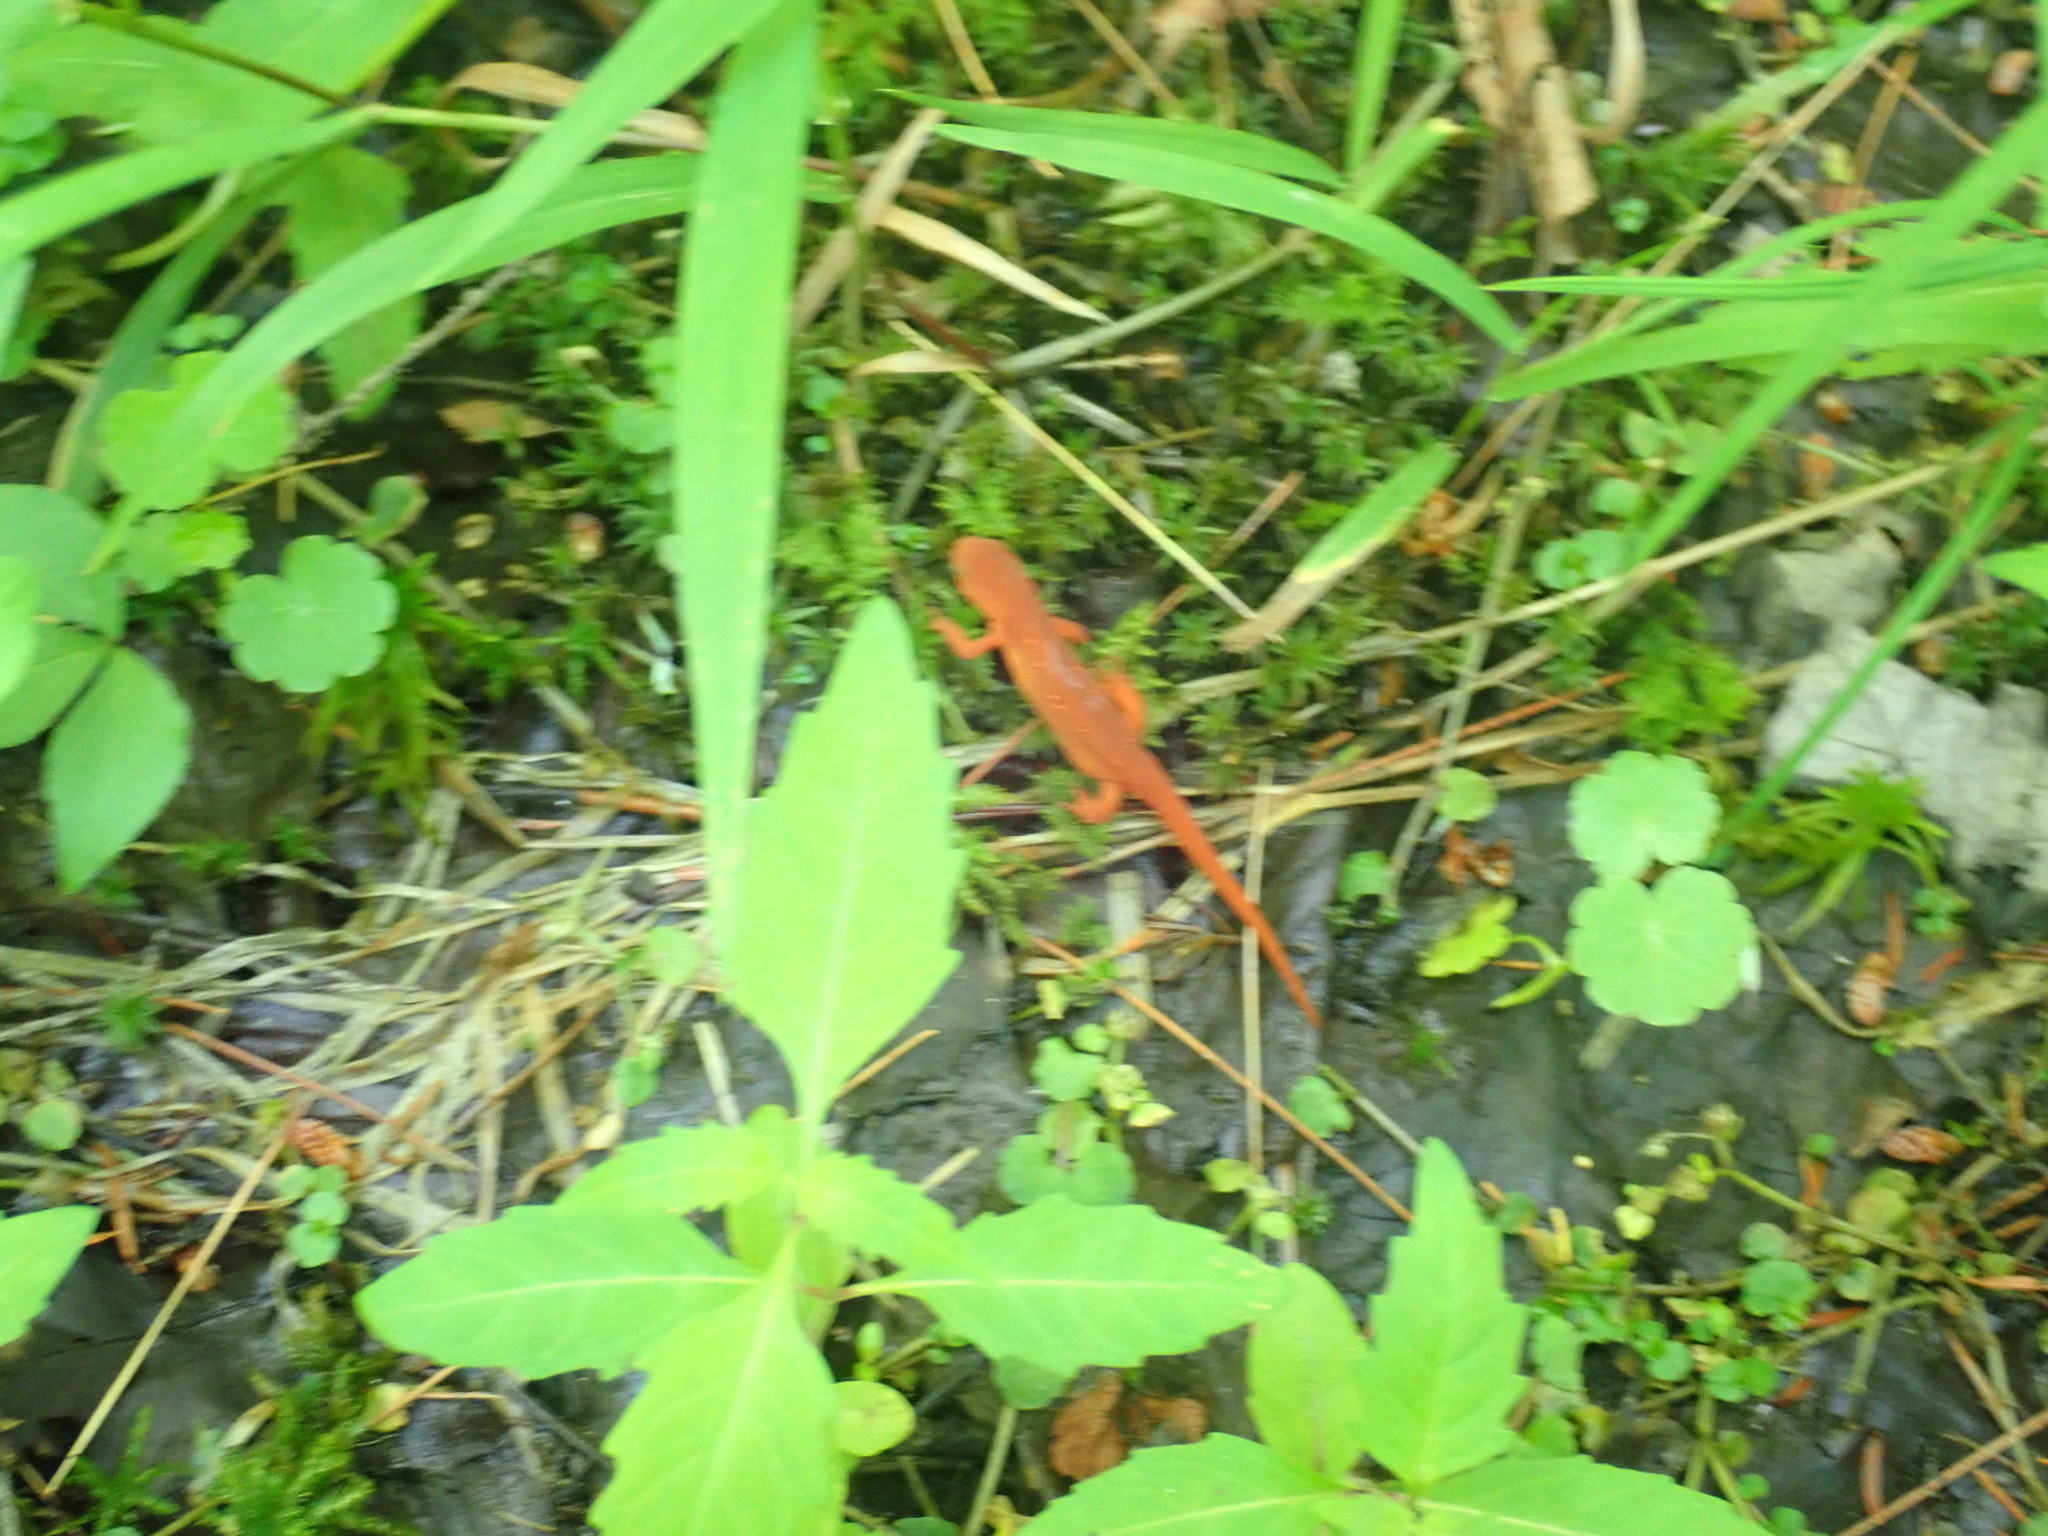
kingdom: Animalia
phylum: Chordata
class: Amphibia
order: Caudata
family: Salamandridae
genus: Notophthalmus
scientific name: Notophthalmus viridescens
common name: Eastern newt
